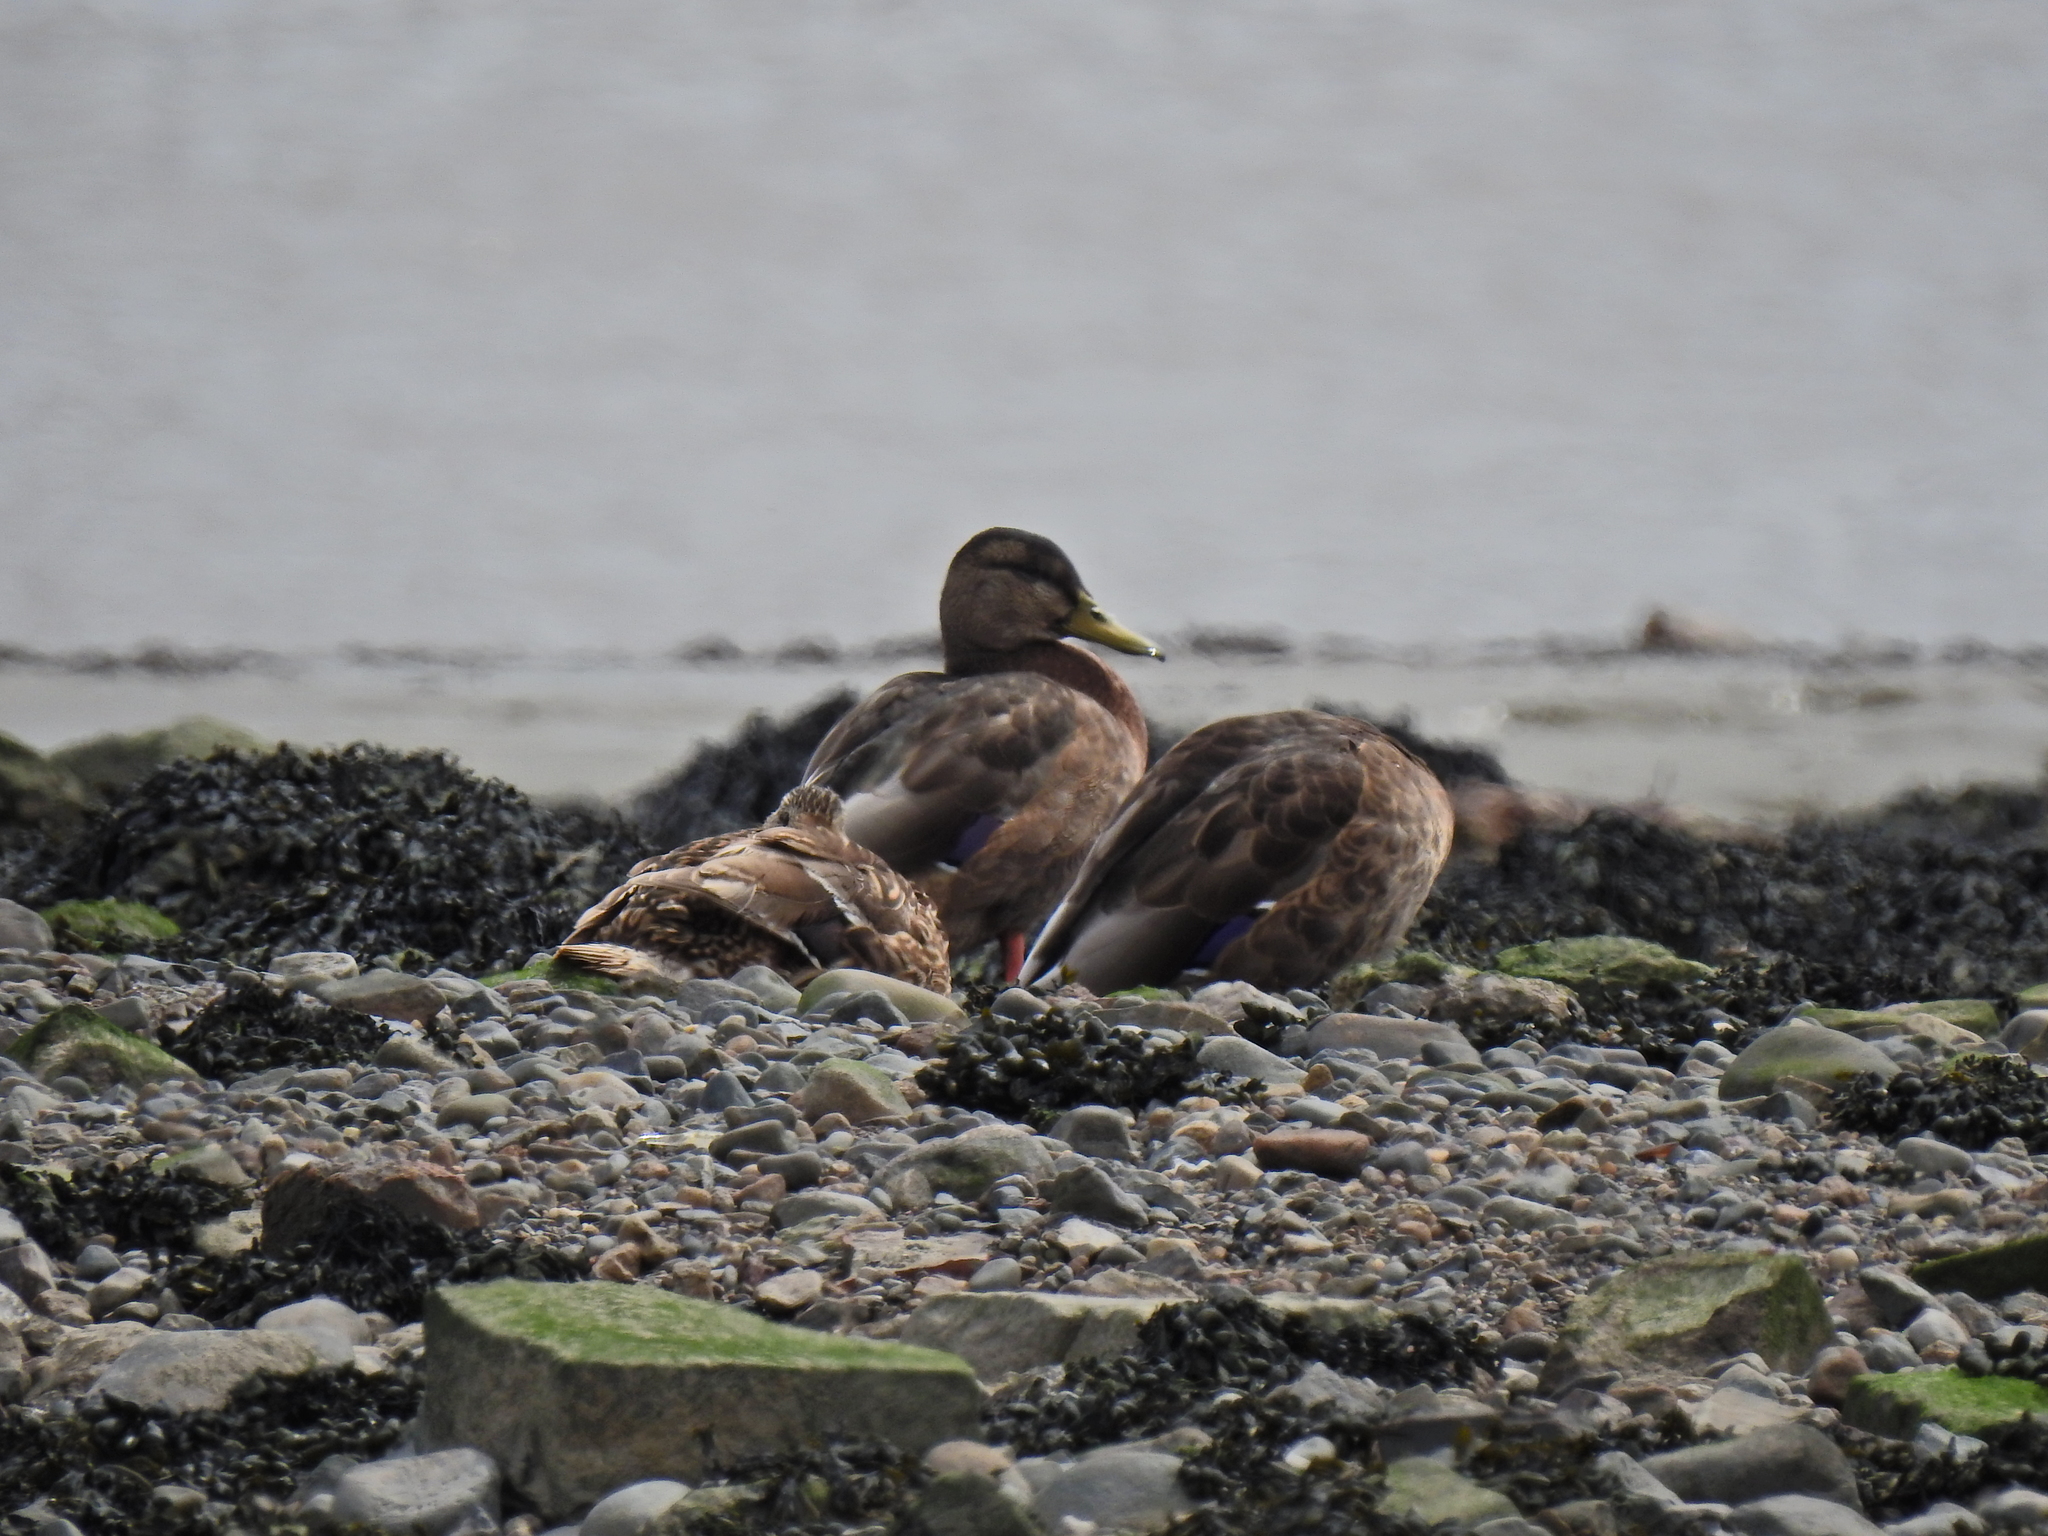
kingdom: Animalia
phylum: Chordata
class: Aves
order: Anseriformes
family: Anatidae
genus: Anas
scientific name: Anas platyrhynchos
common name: Mallard
